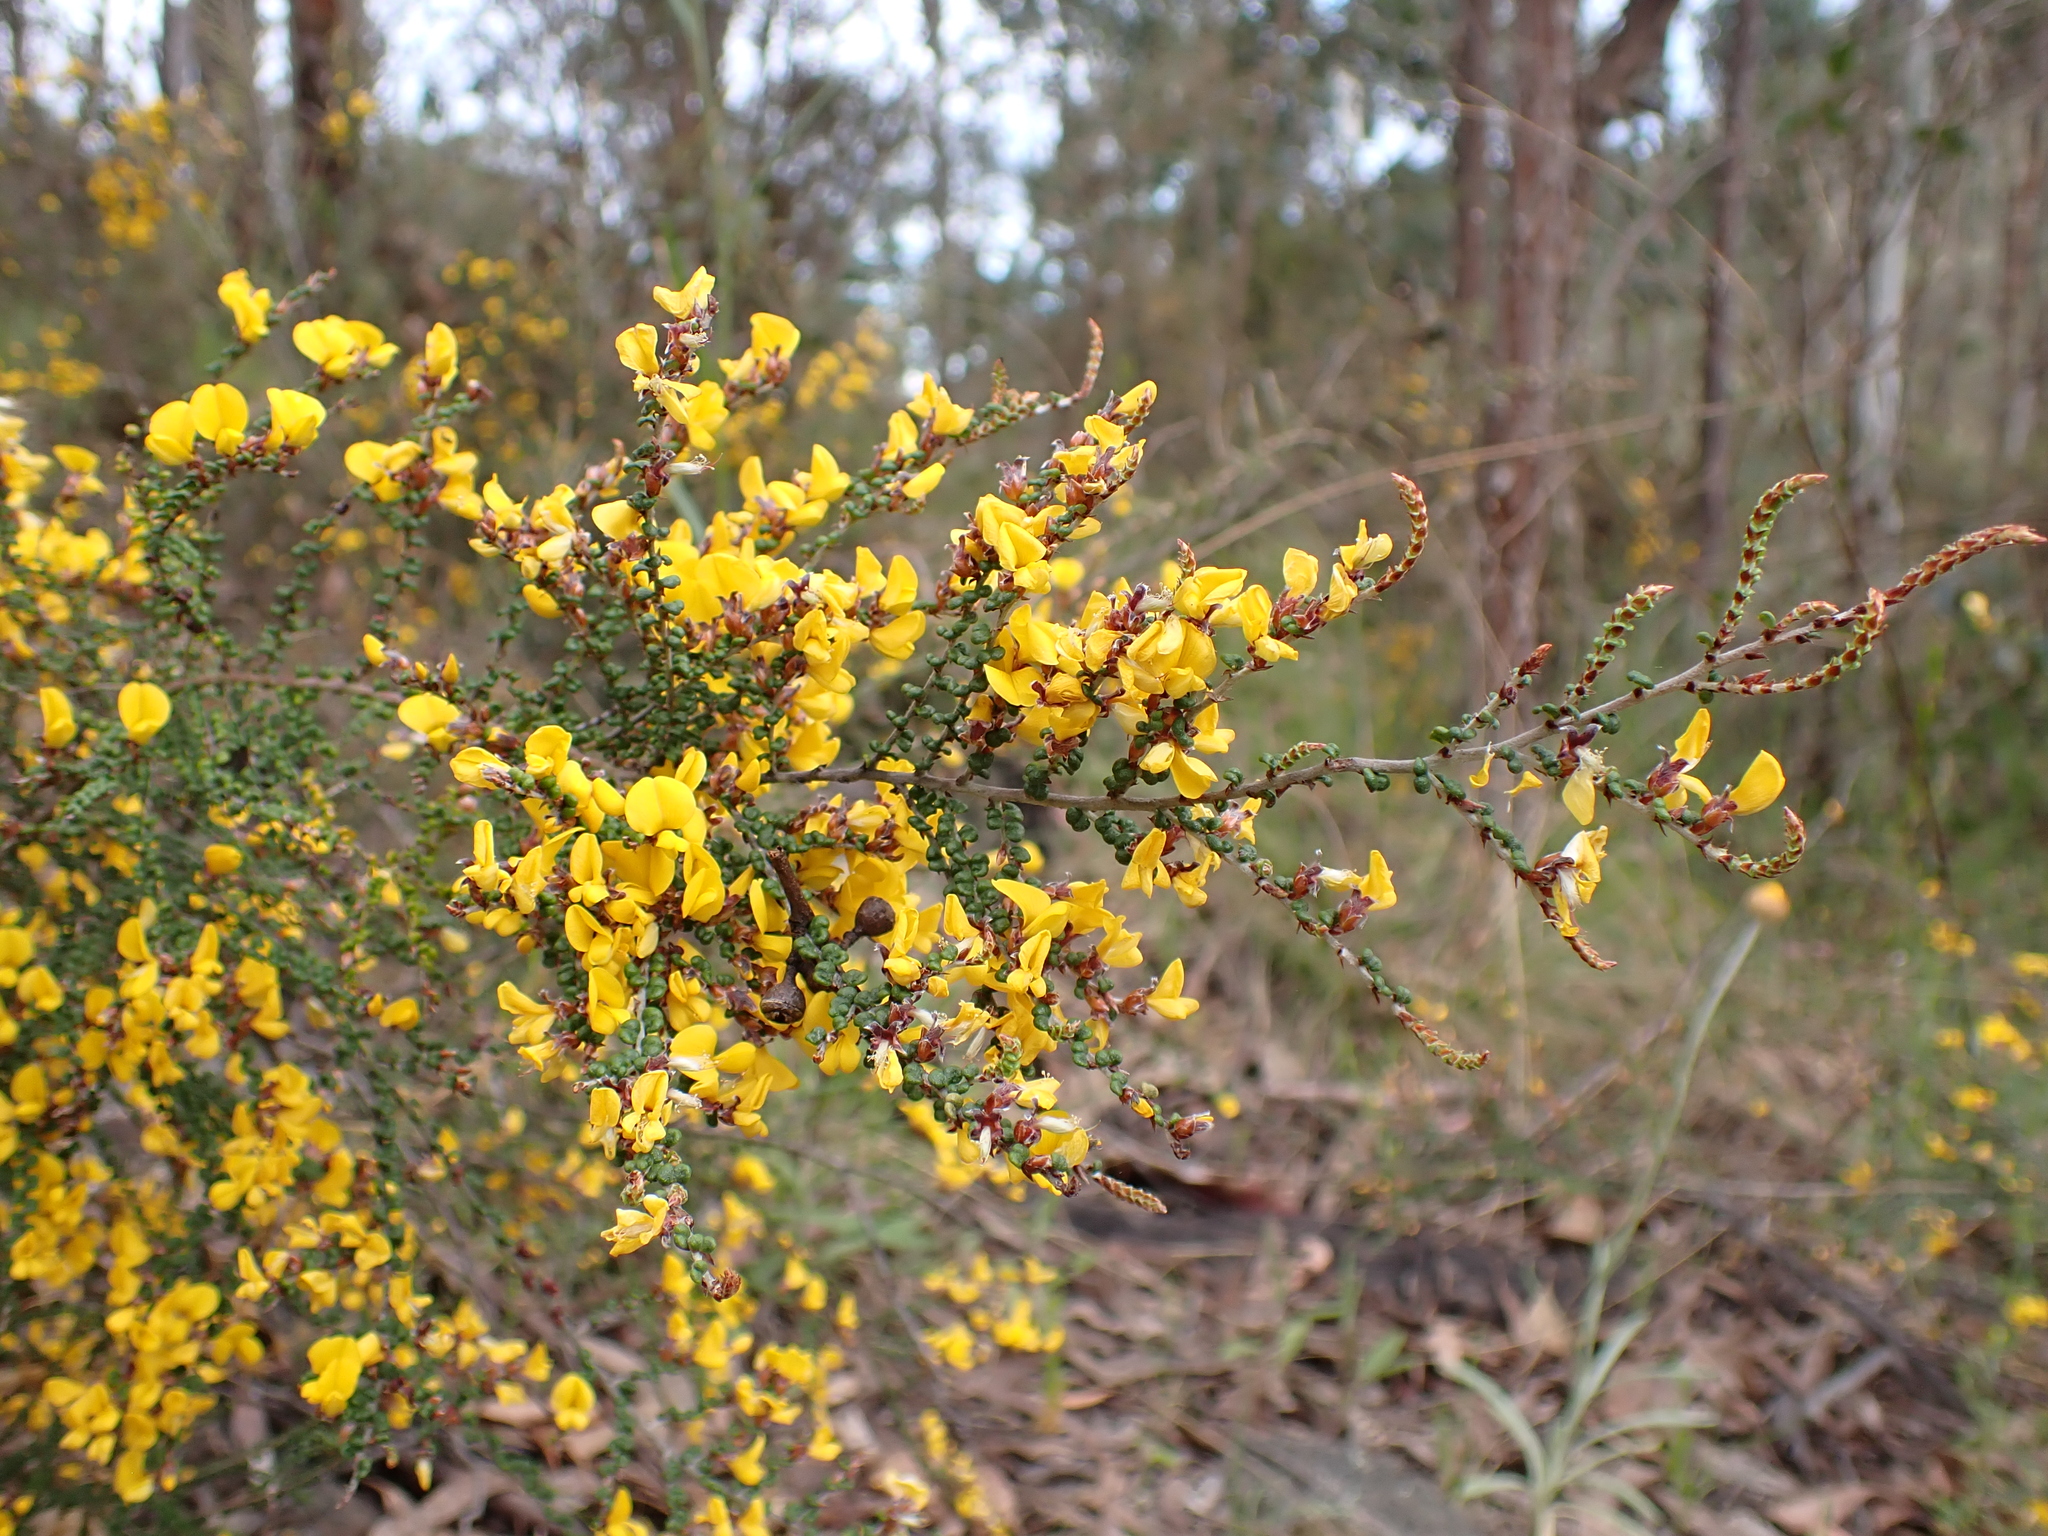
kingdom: Plantae
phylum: Tracheophyta
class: Magnoliopsida
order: Fabales
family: Fabaceae
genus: Bossiaea
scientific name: Bossiaea distichoclada
